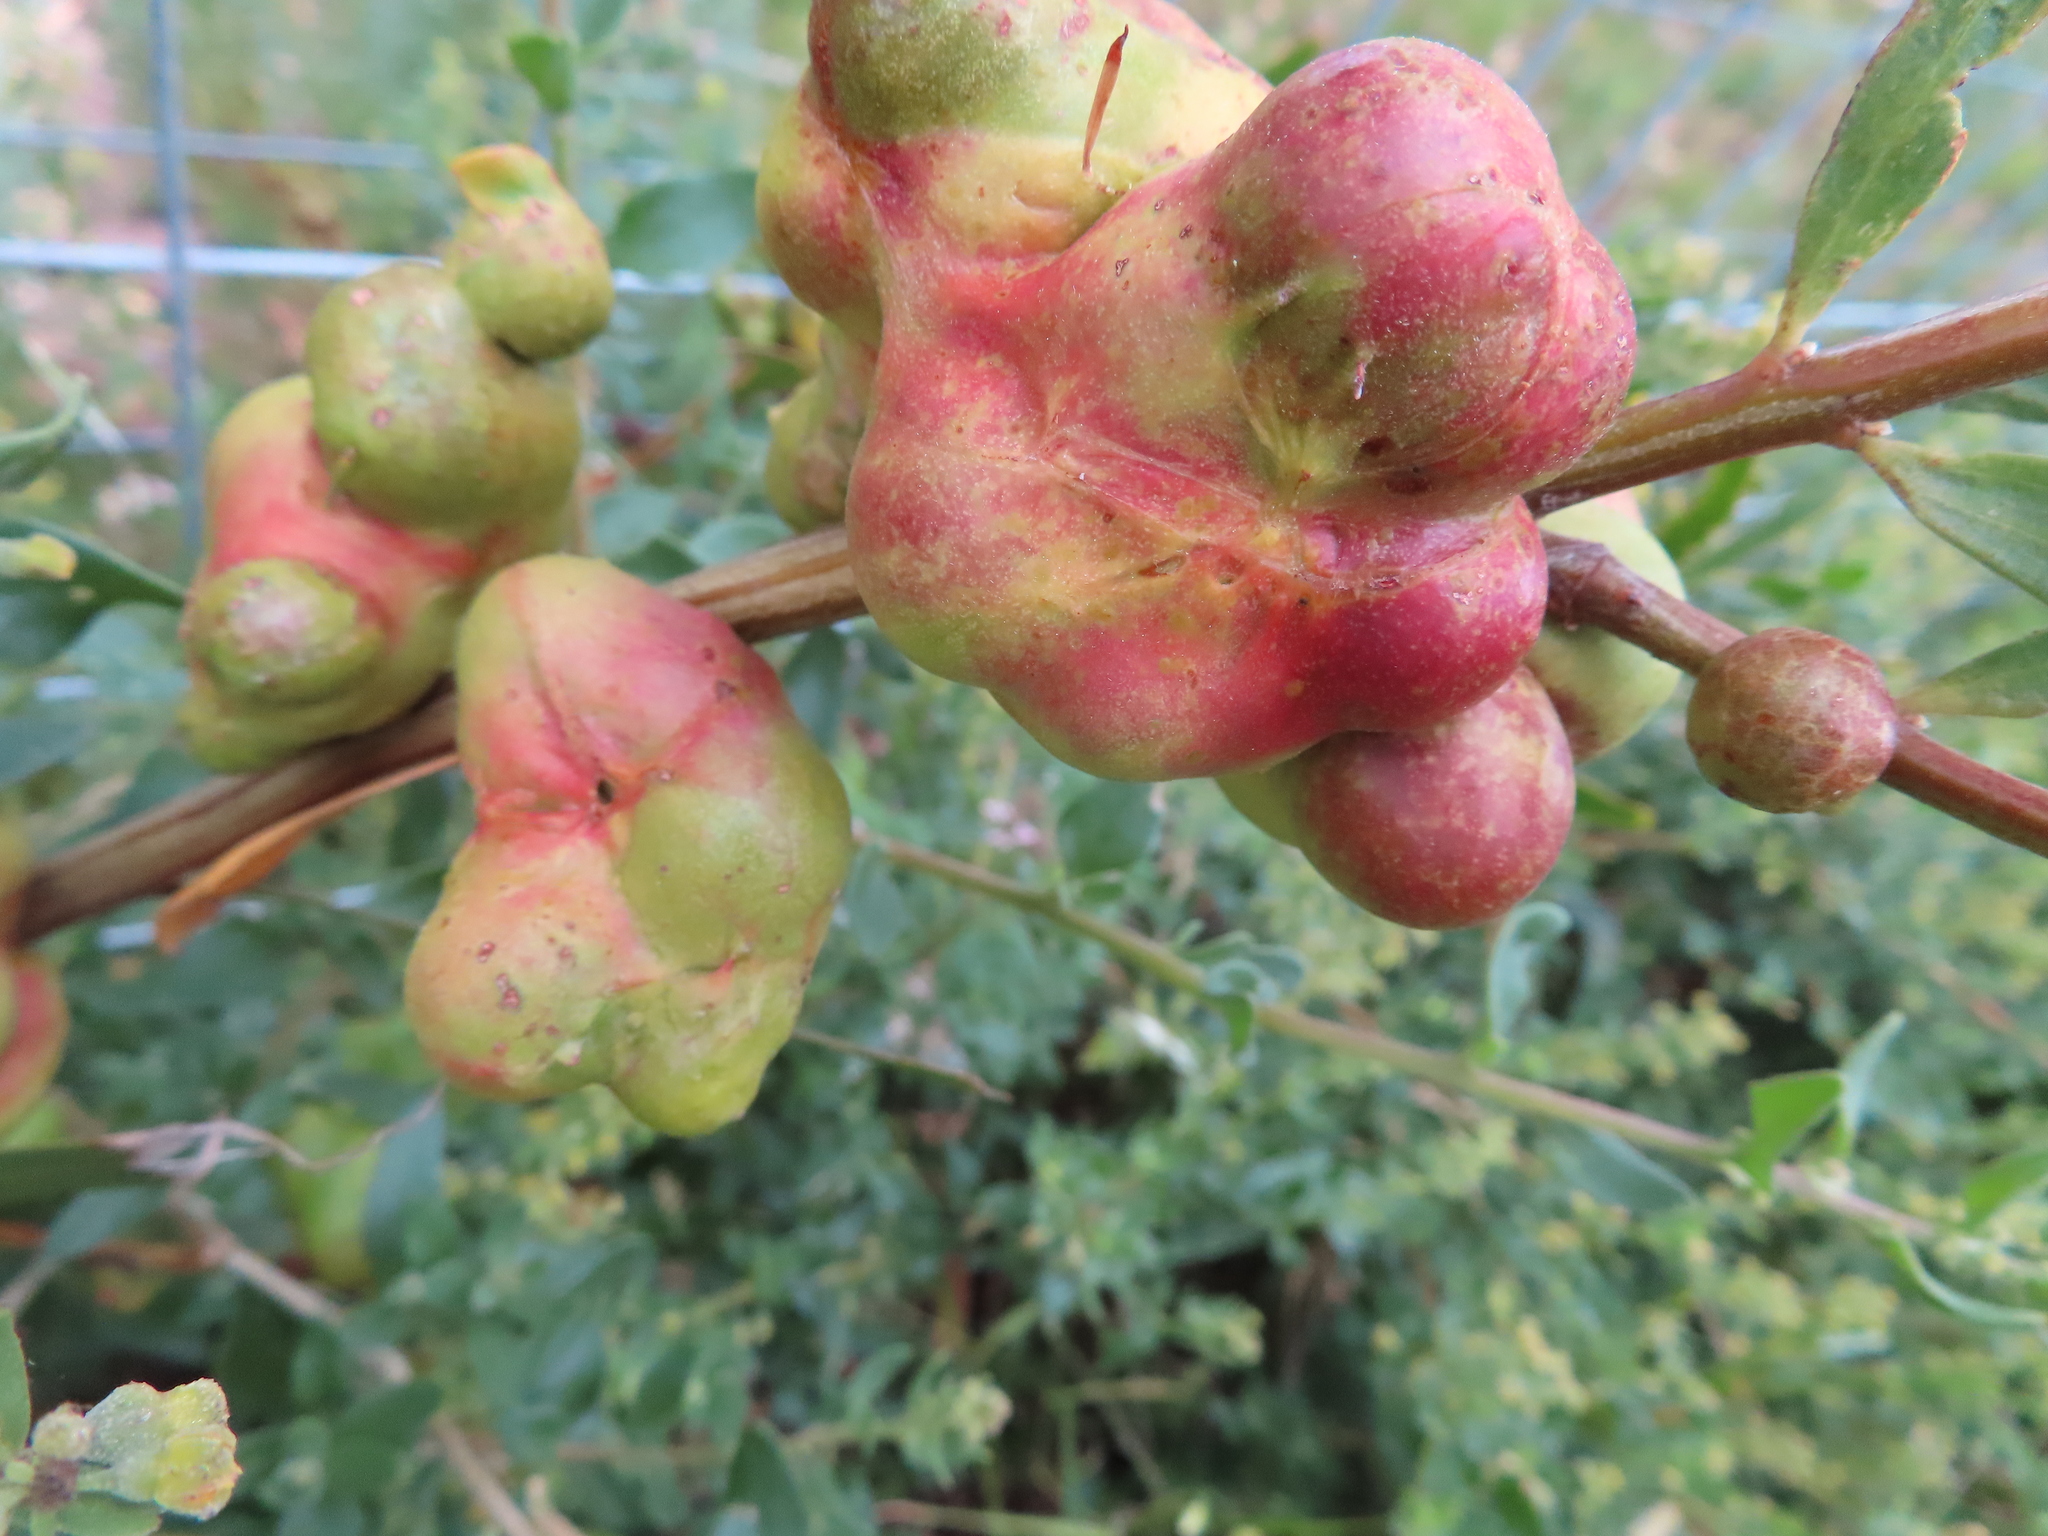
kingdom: Animalia
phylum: Arthropoda
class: Insecta
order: Hymenoptera
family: Pteromalidae
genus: Trichilogaster
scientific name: Trichilogaster acaciaelongifoliae
